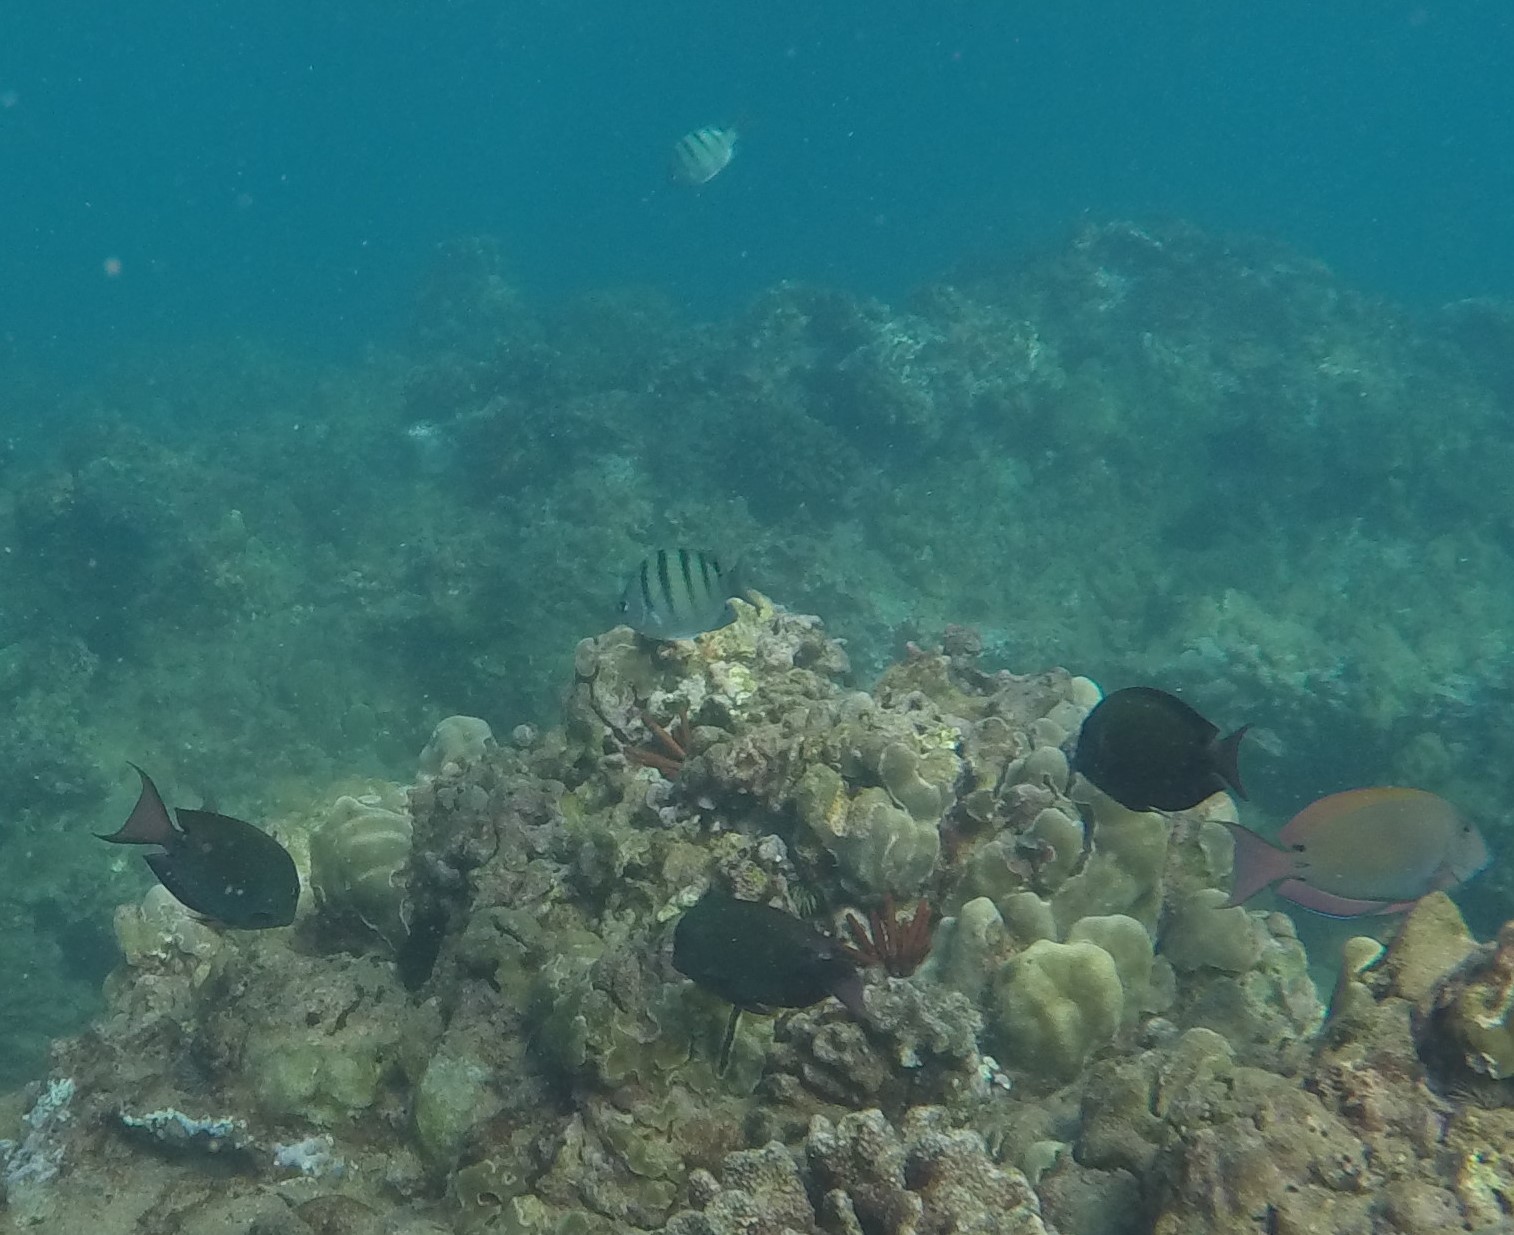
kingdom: Animalia
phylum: Chordata
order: Perciformes
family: Acanthuridae
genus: Acanthurus
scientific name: Acanthurus nigrofuscus
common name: Blackspot surgeonfish
